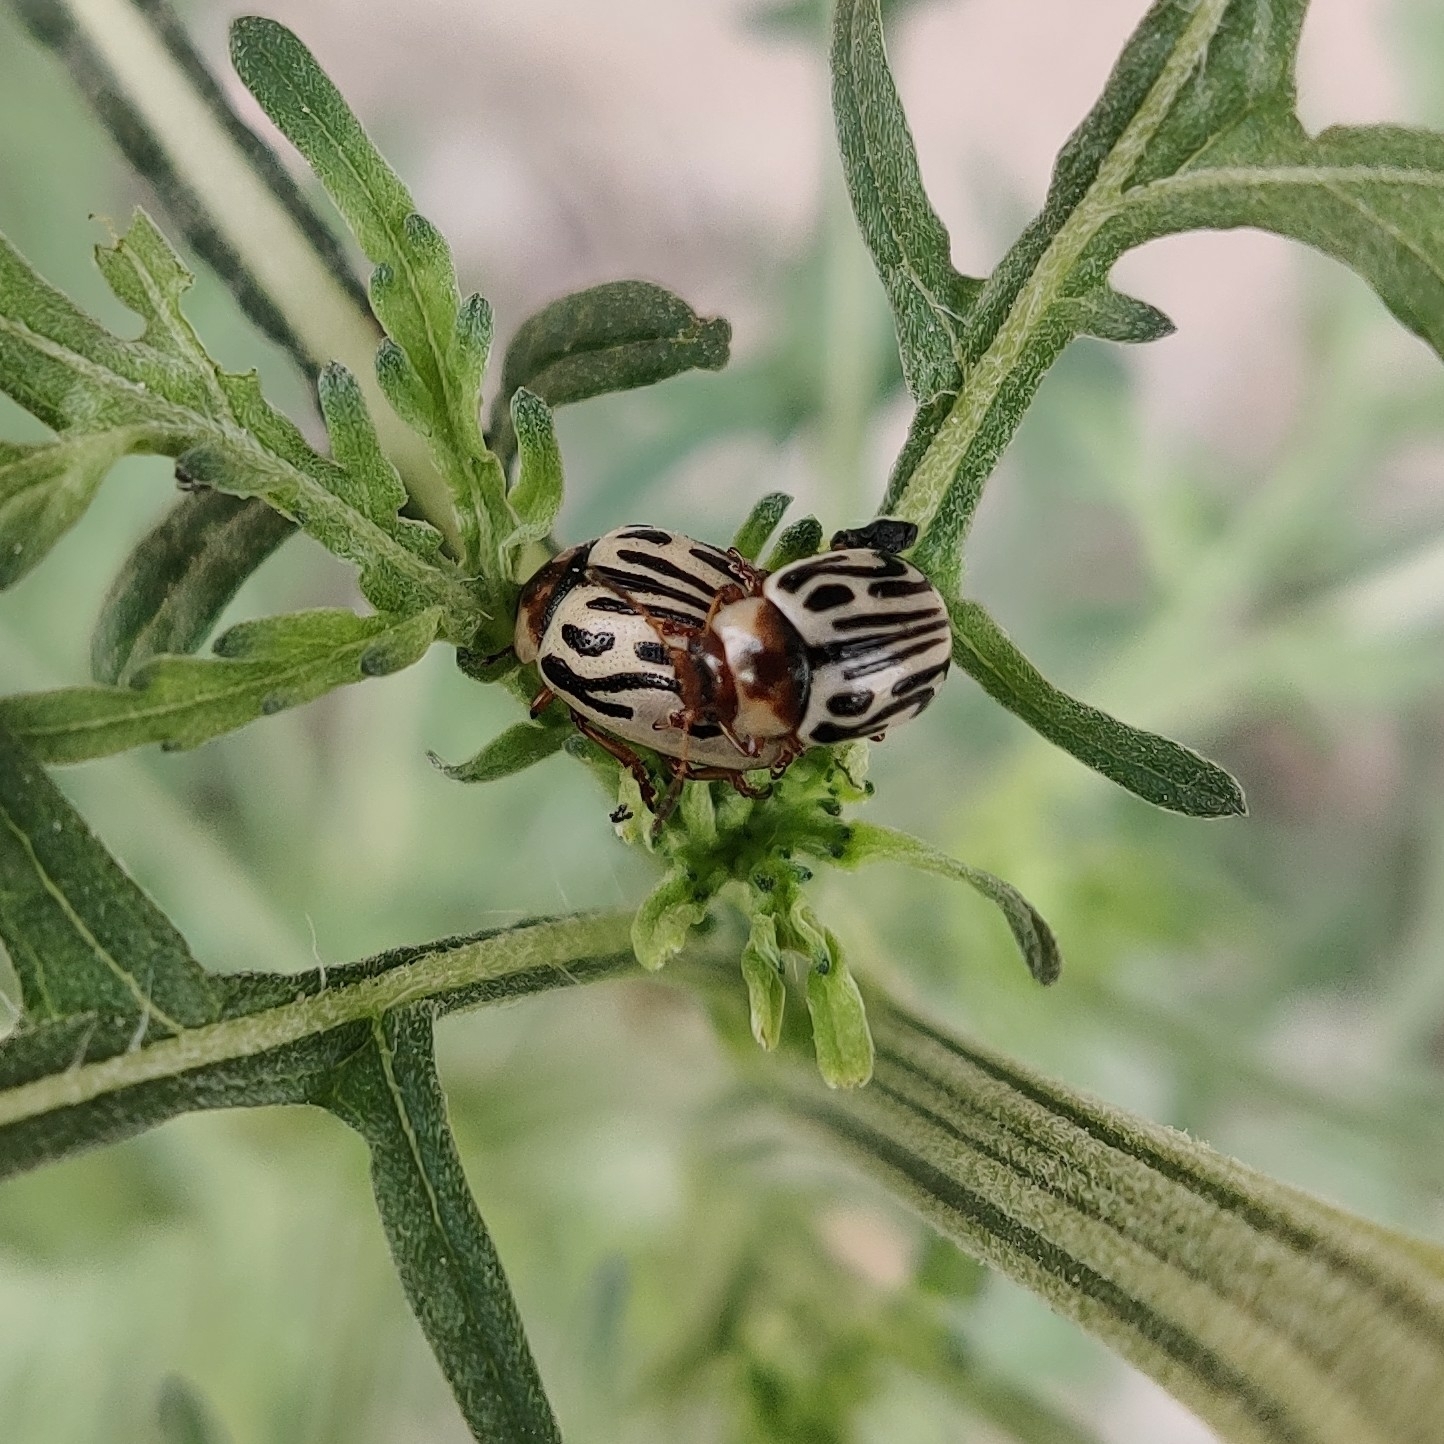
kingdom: Animalia
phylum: Arthropoda
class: Insecta
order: Coleoptera
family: Chrysomelidae
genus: Calligrapha
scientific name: Calligrapha
